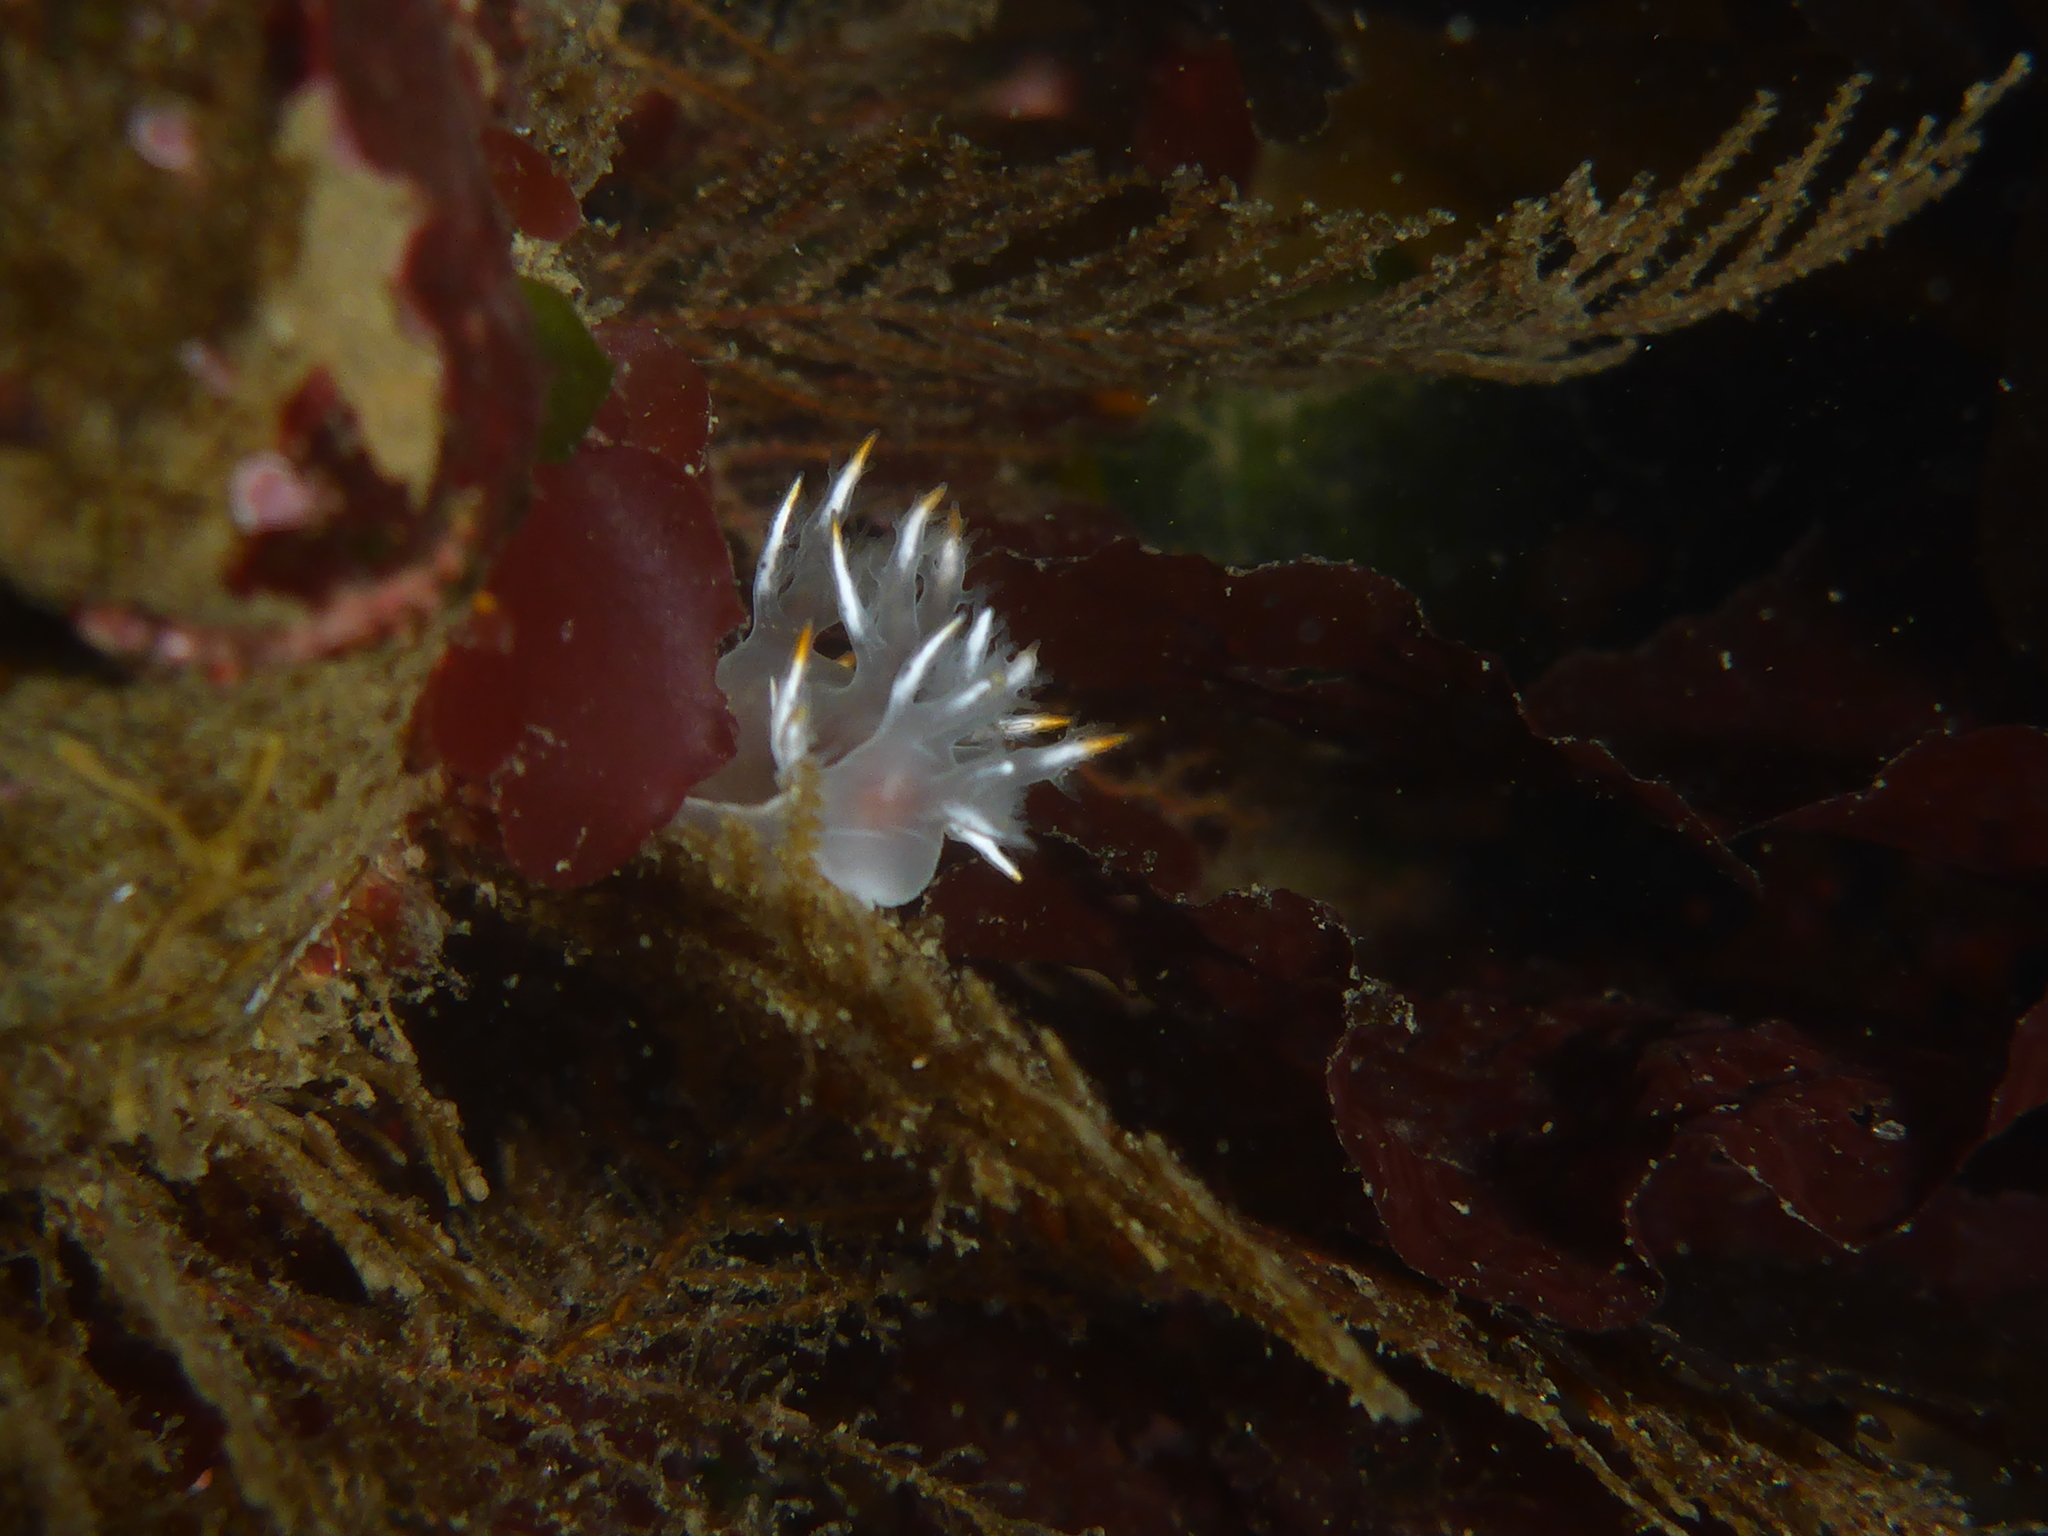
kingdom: Animalia
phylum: Mollusca
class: Gastropoda
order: Nudibranchia
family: Dendronotidae
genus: Dendronotus
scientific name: Dendronotus albus
